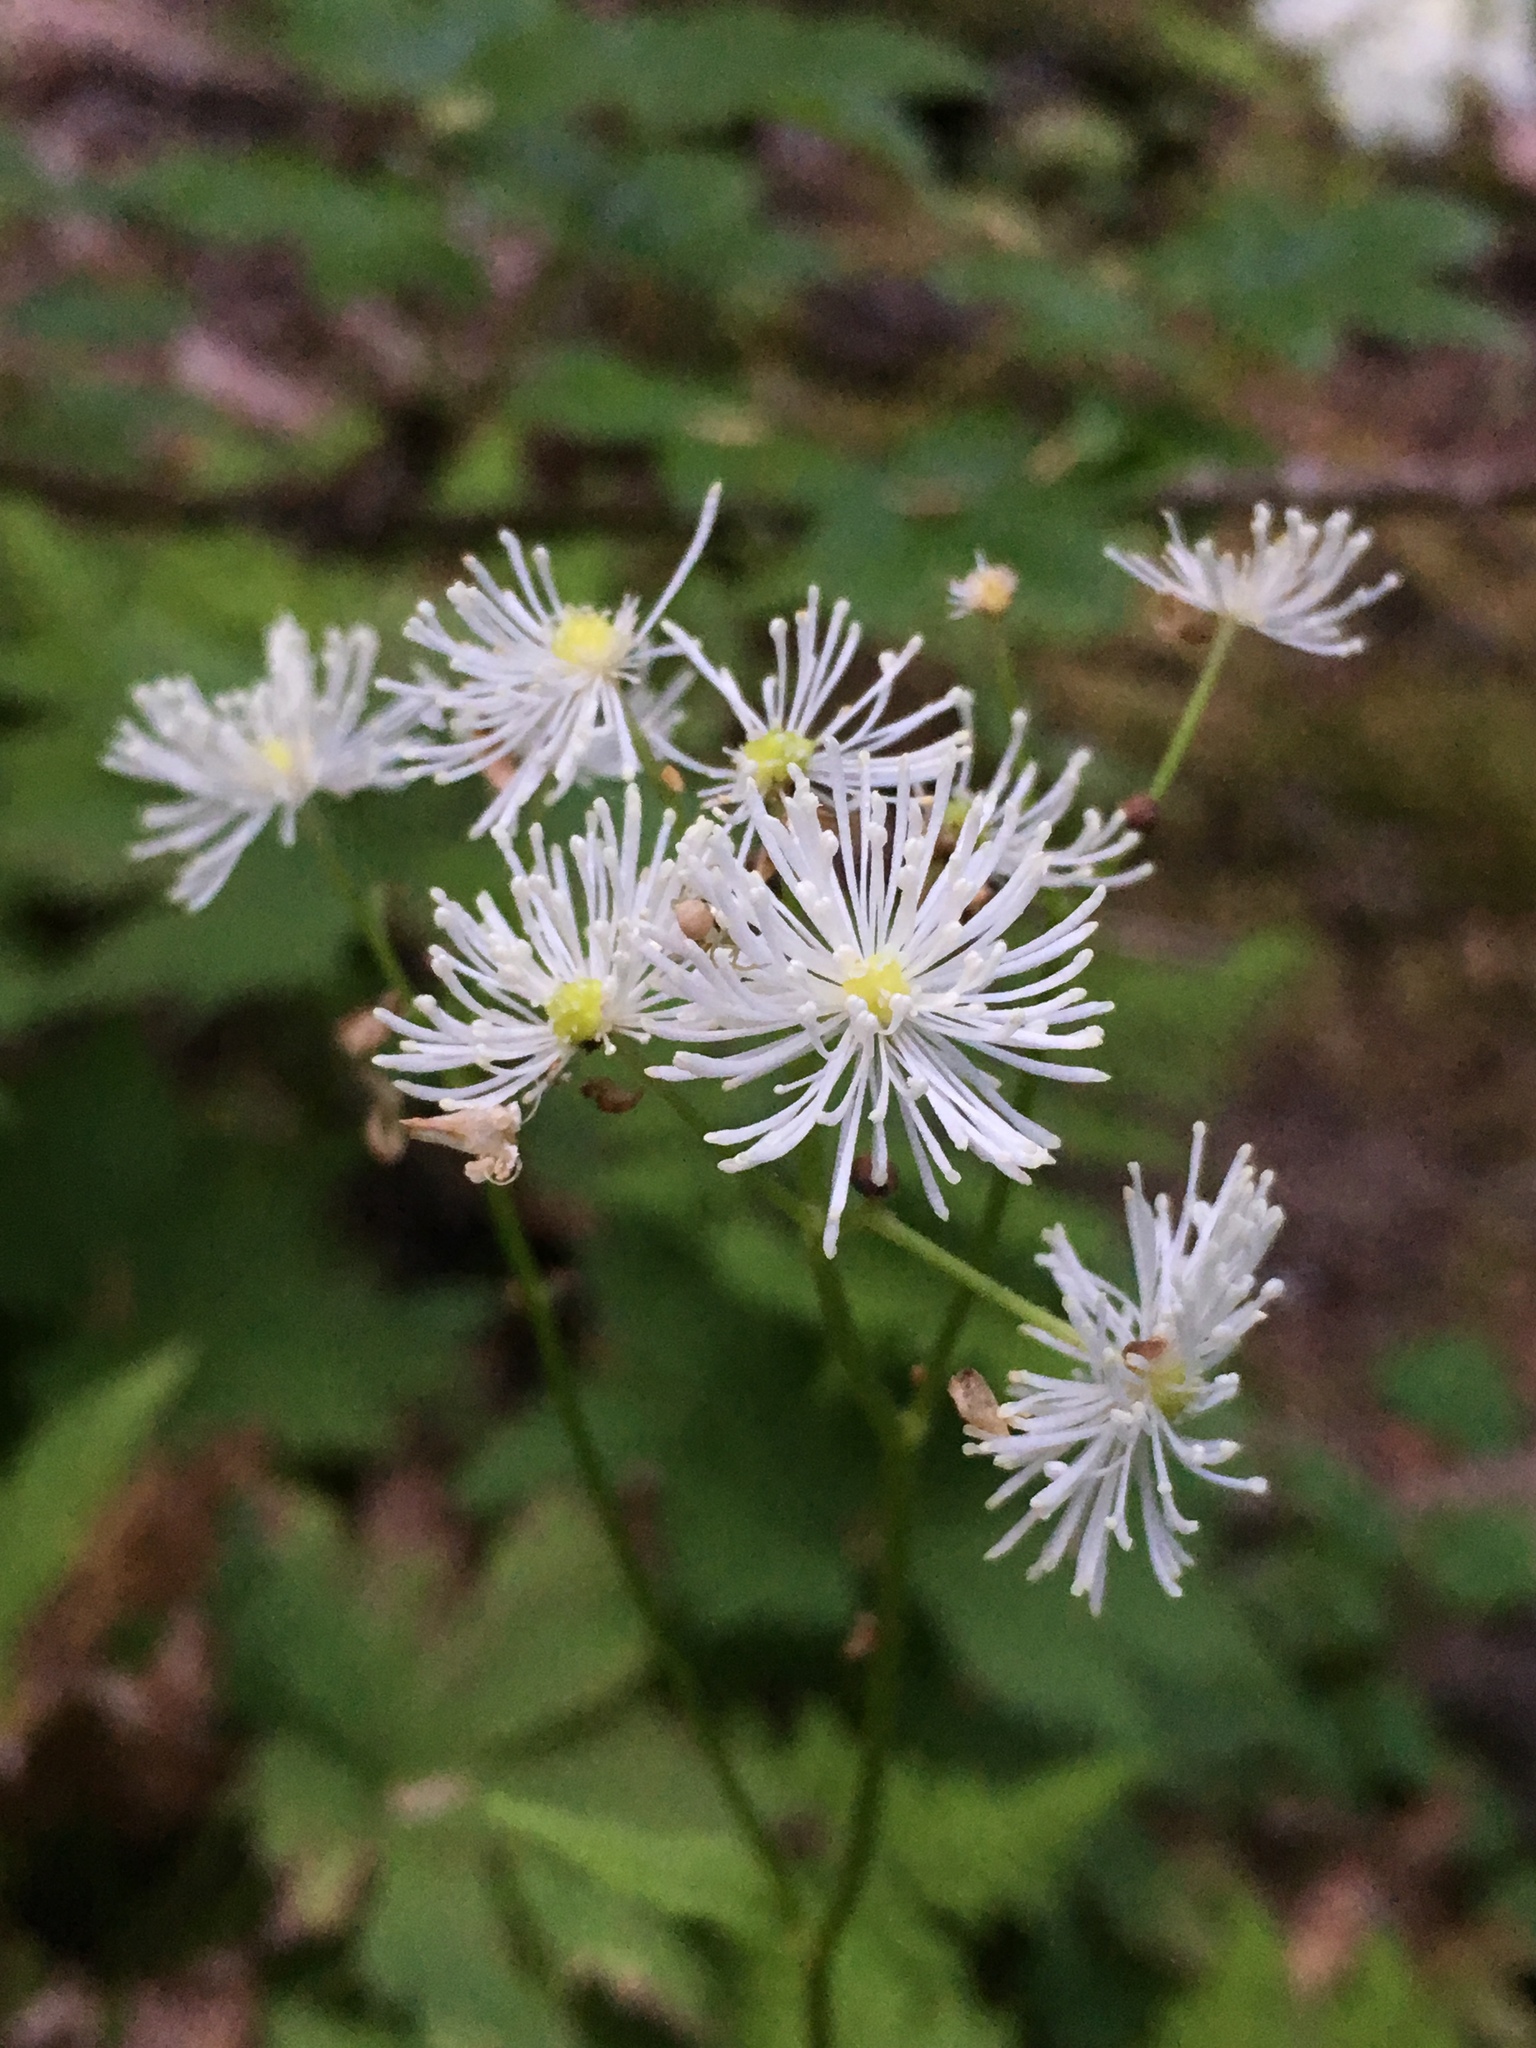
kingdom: Plantae
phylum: Tracheophyta
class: Magnoliopsida
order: Ranunculales
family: Ranunculaceae
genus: Trautvetteria
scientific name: Trautvetteria carolinensis
